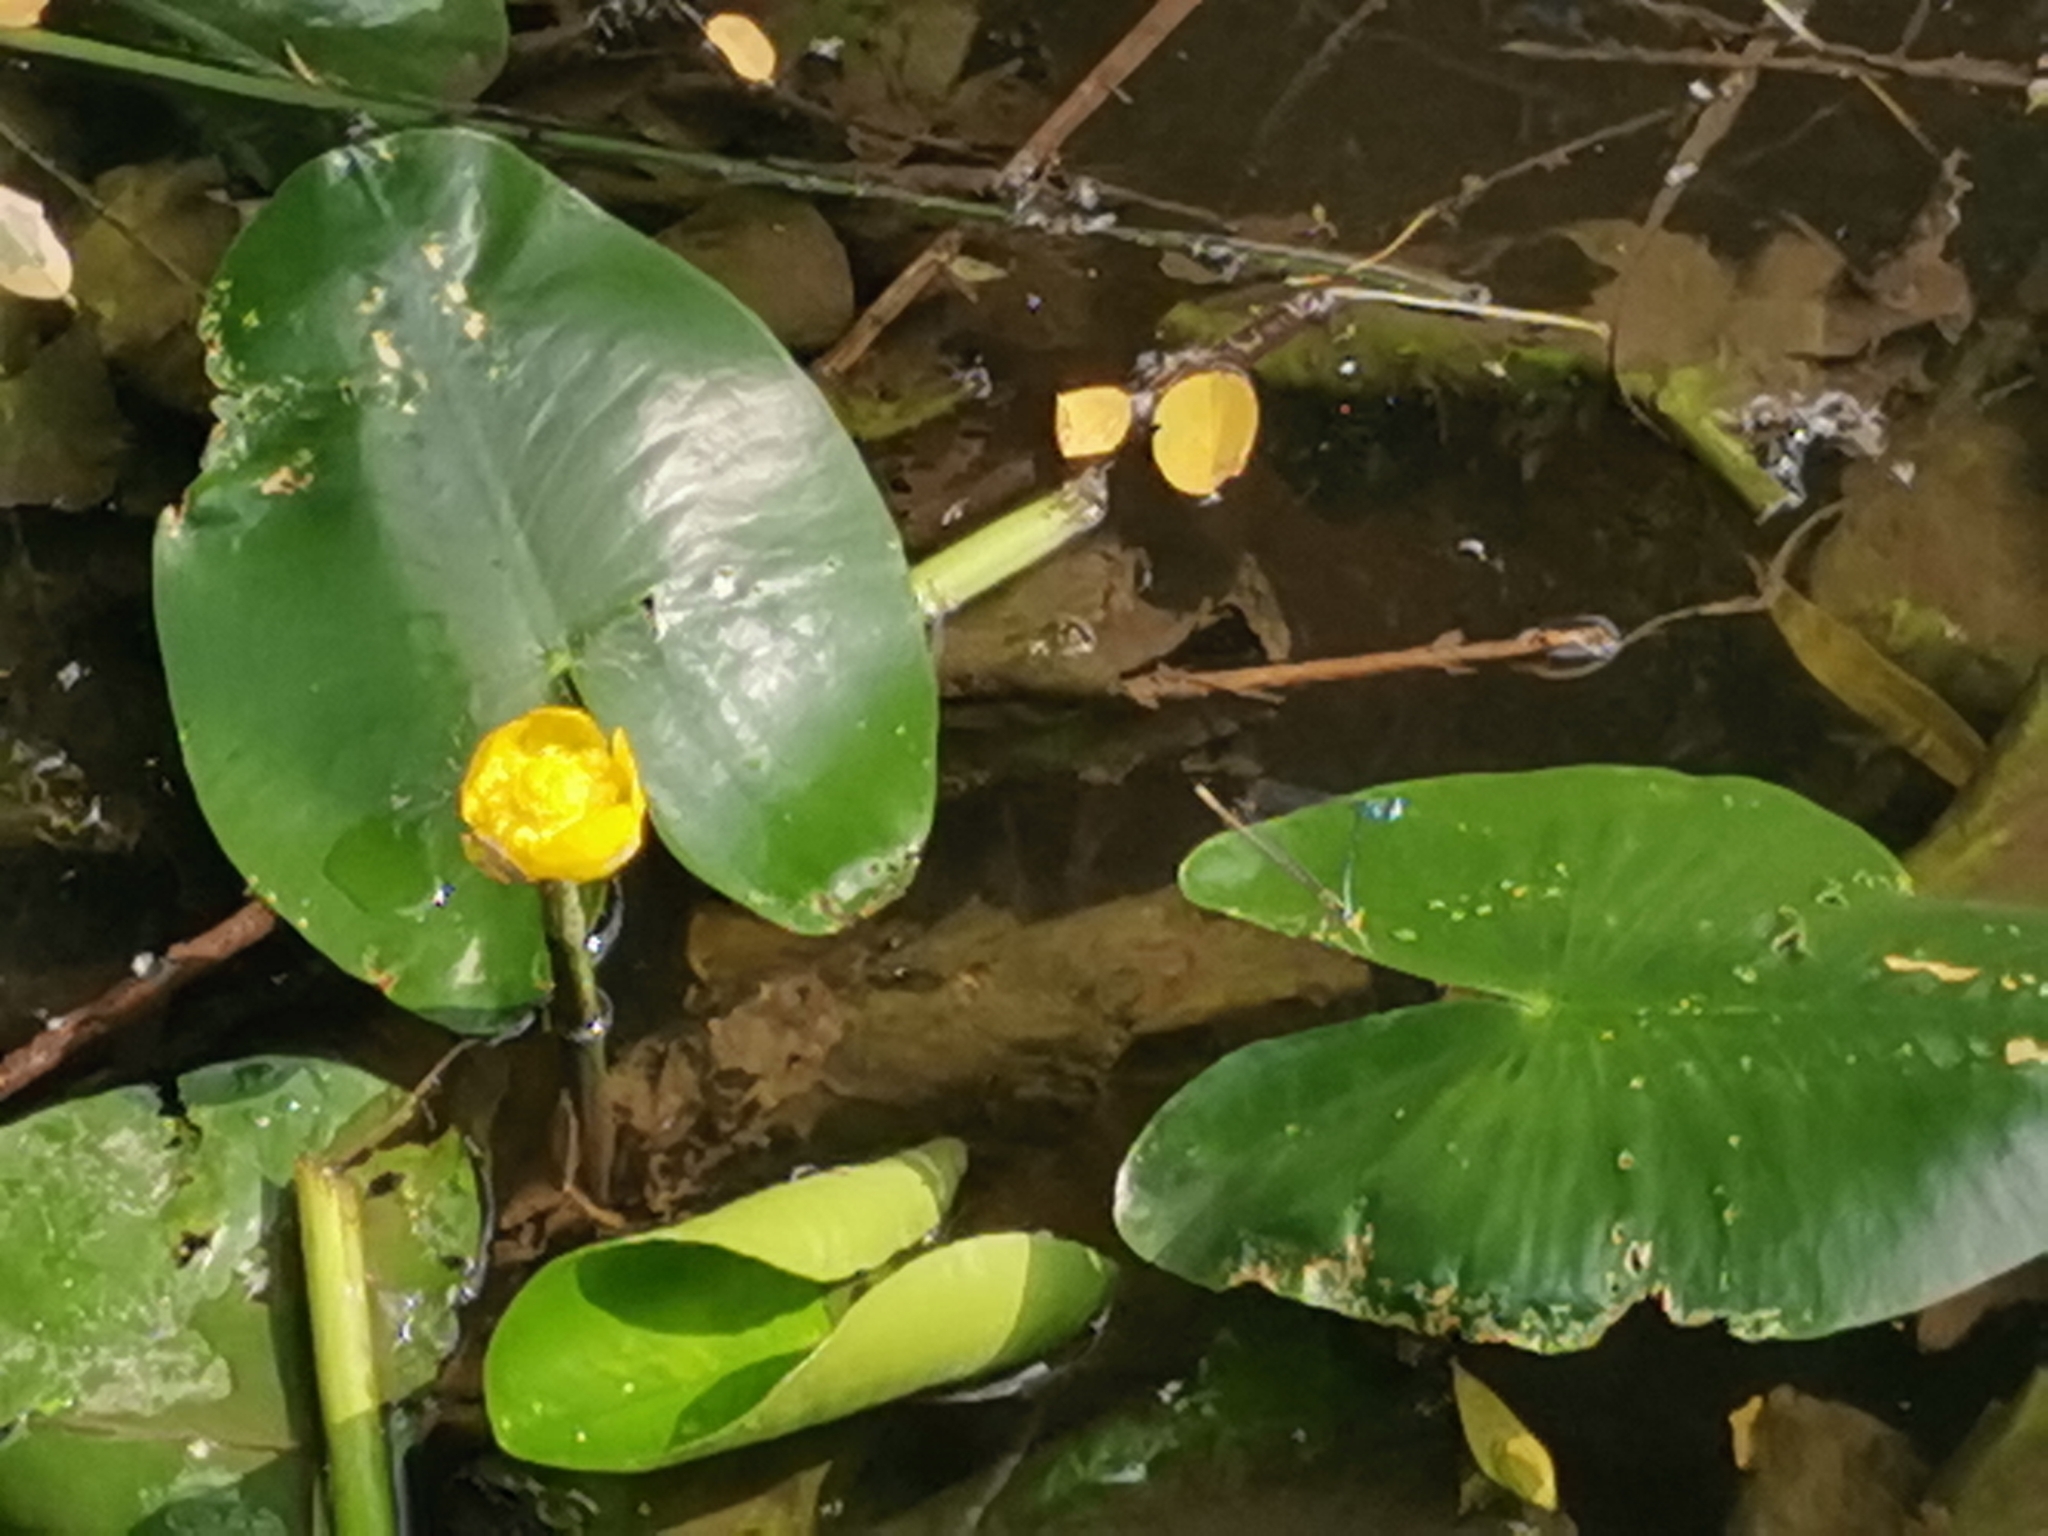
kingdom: Plantae
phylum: Tracheophyta
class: Magnoliopsida
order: Nymphaeales
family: Nymphaeaceae
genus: Nuphar
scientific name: Nuphar lutea
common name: Yellow water-lily
